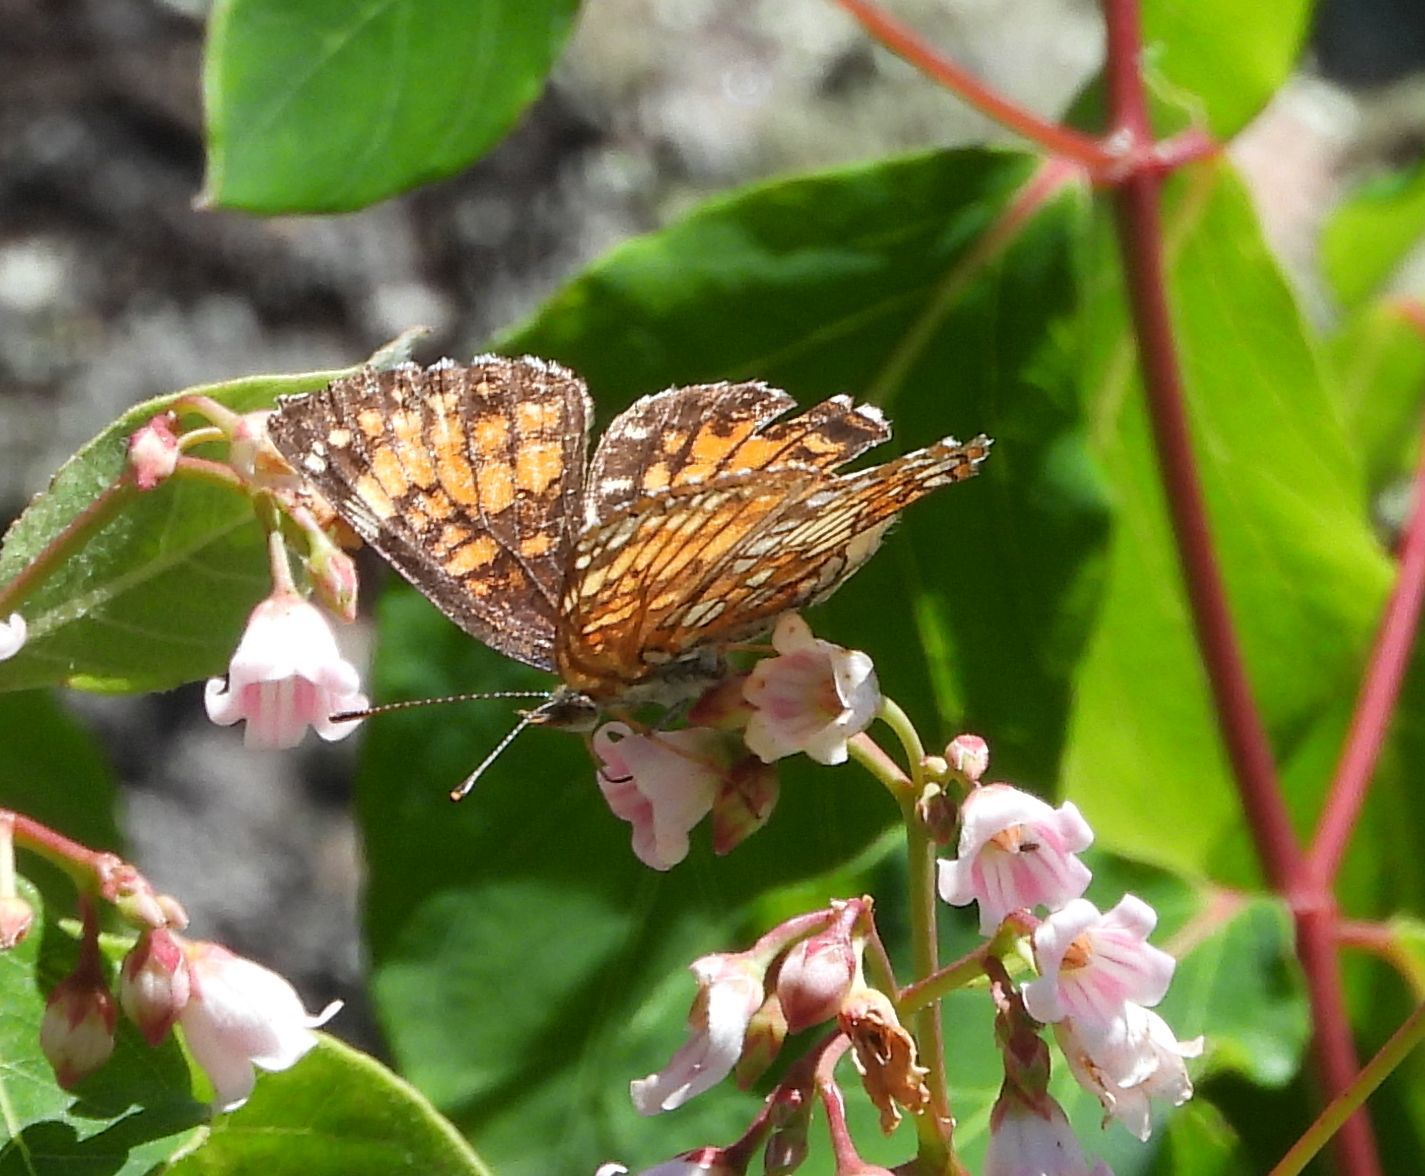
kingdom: Animalia
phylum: Arthropoda
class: Insecta
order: Lepidoptera
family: Nymphalidae
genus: Chlosyne
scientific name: Chlosyne harrisii
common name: Harris's checkerspot
